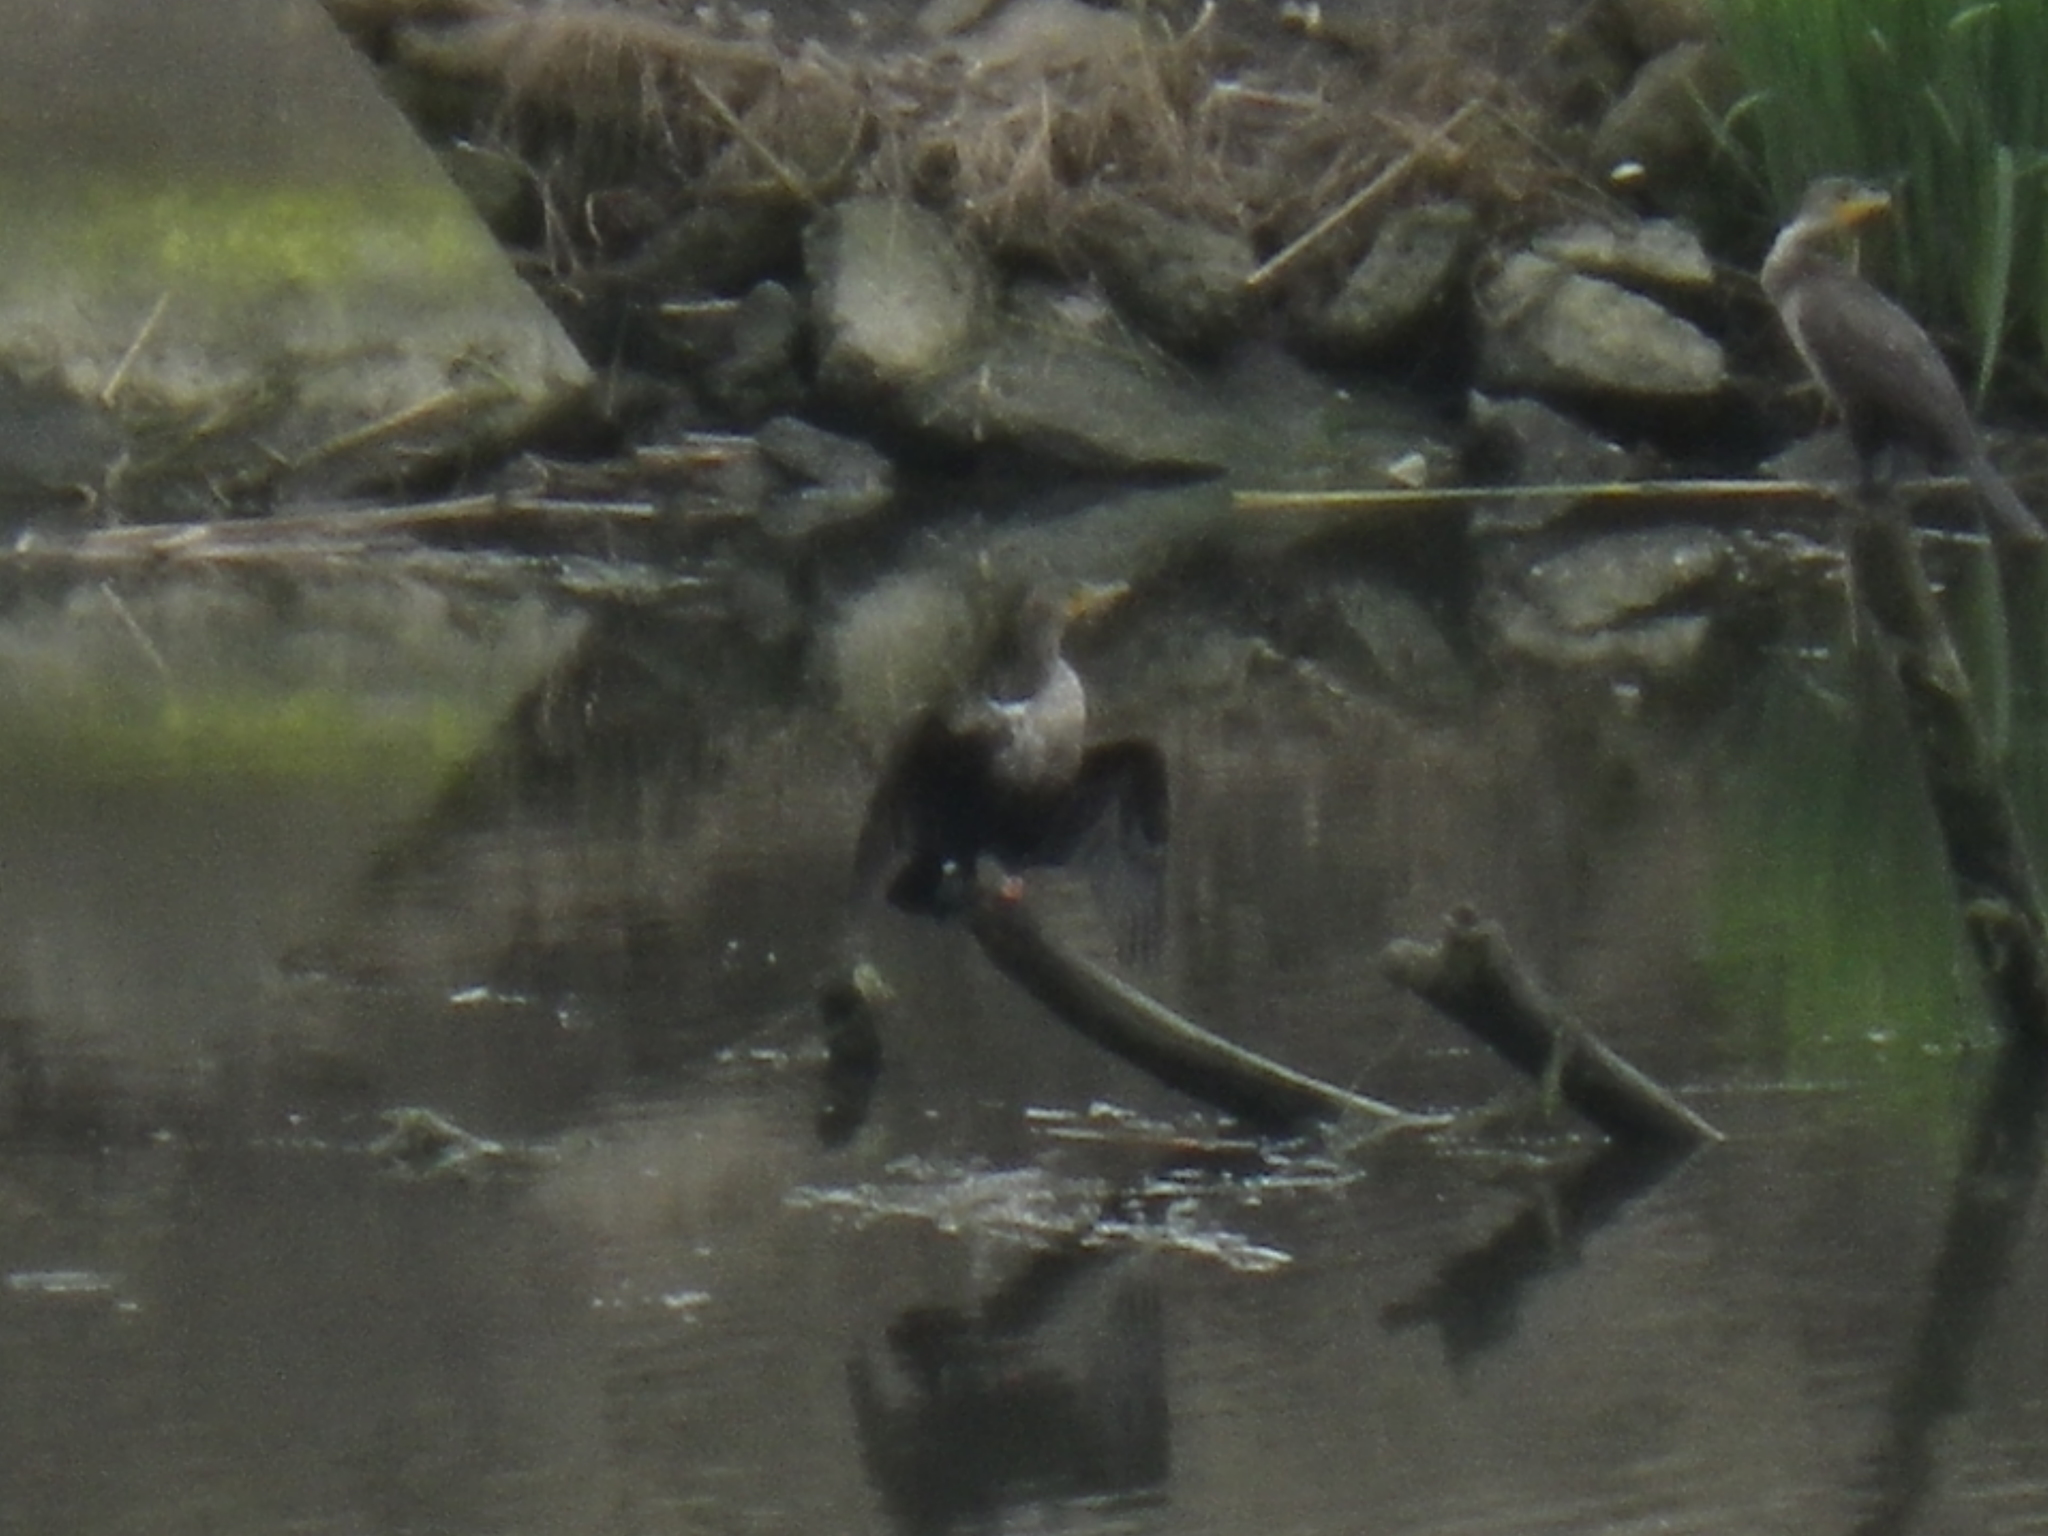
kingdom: Animalia
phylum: Chordata
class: Aves
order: Suliformes
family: Phalacrocoracidae
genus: Phalacrocorax
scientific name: Phalacrocorax auritus
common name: Double-crested cormorant
